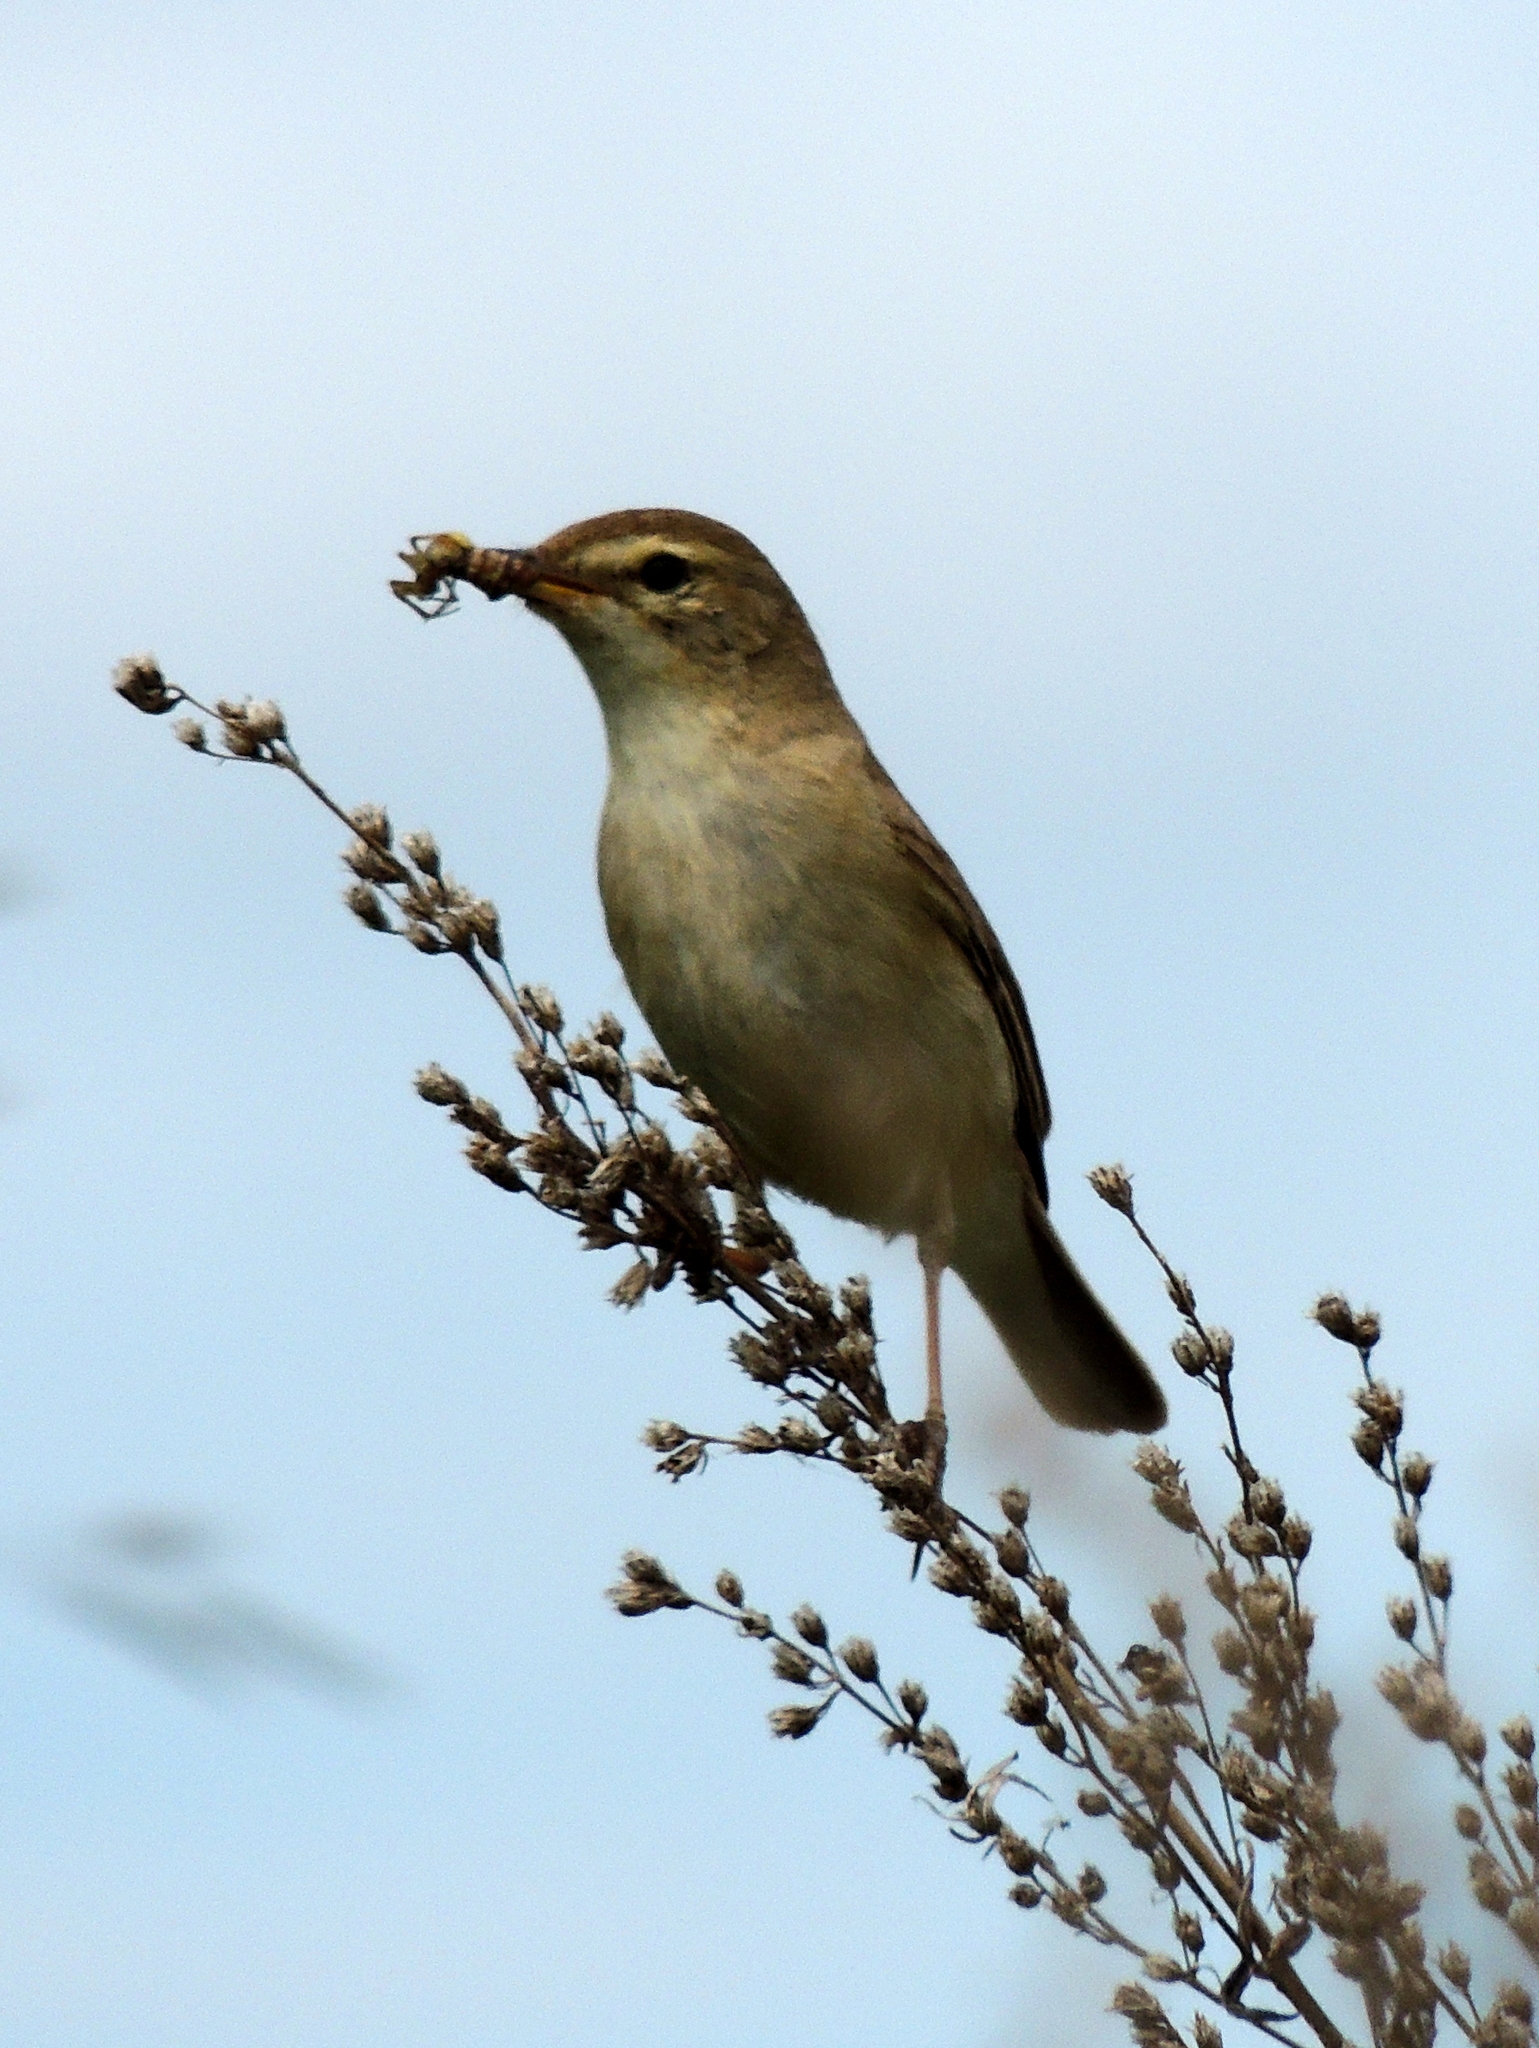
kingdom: Animalia
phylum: Chordata
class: Aves
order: Passeriformes
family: Acrocephalidae
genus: Iduna
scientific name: Iduna caligata
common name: Booted warbler
